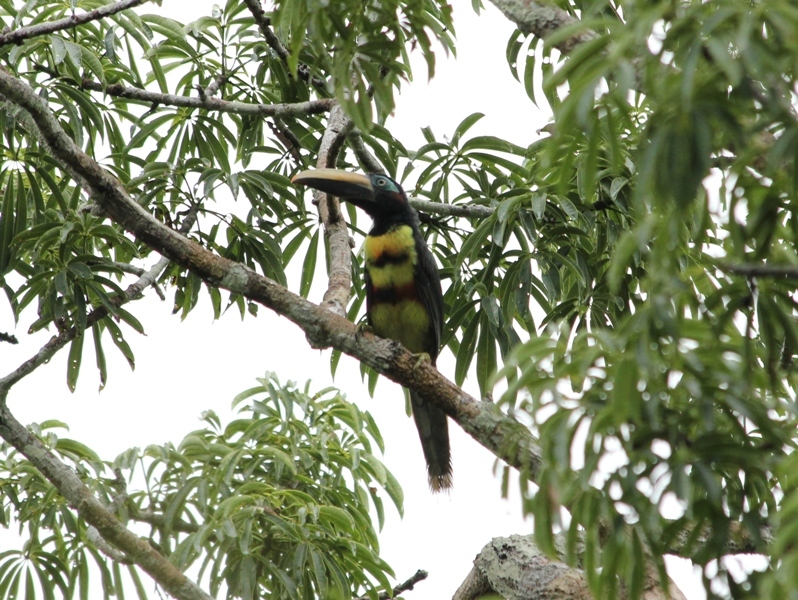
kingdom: Animalia
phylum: Chordata
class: Aves
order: Piciformes
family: Ramphastidae
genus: Pteroglossus
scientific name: Pteroglossus pluricinctus
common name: Many-banded aracari
